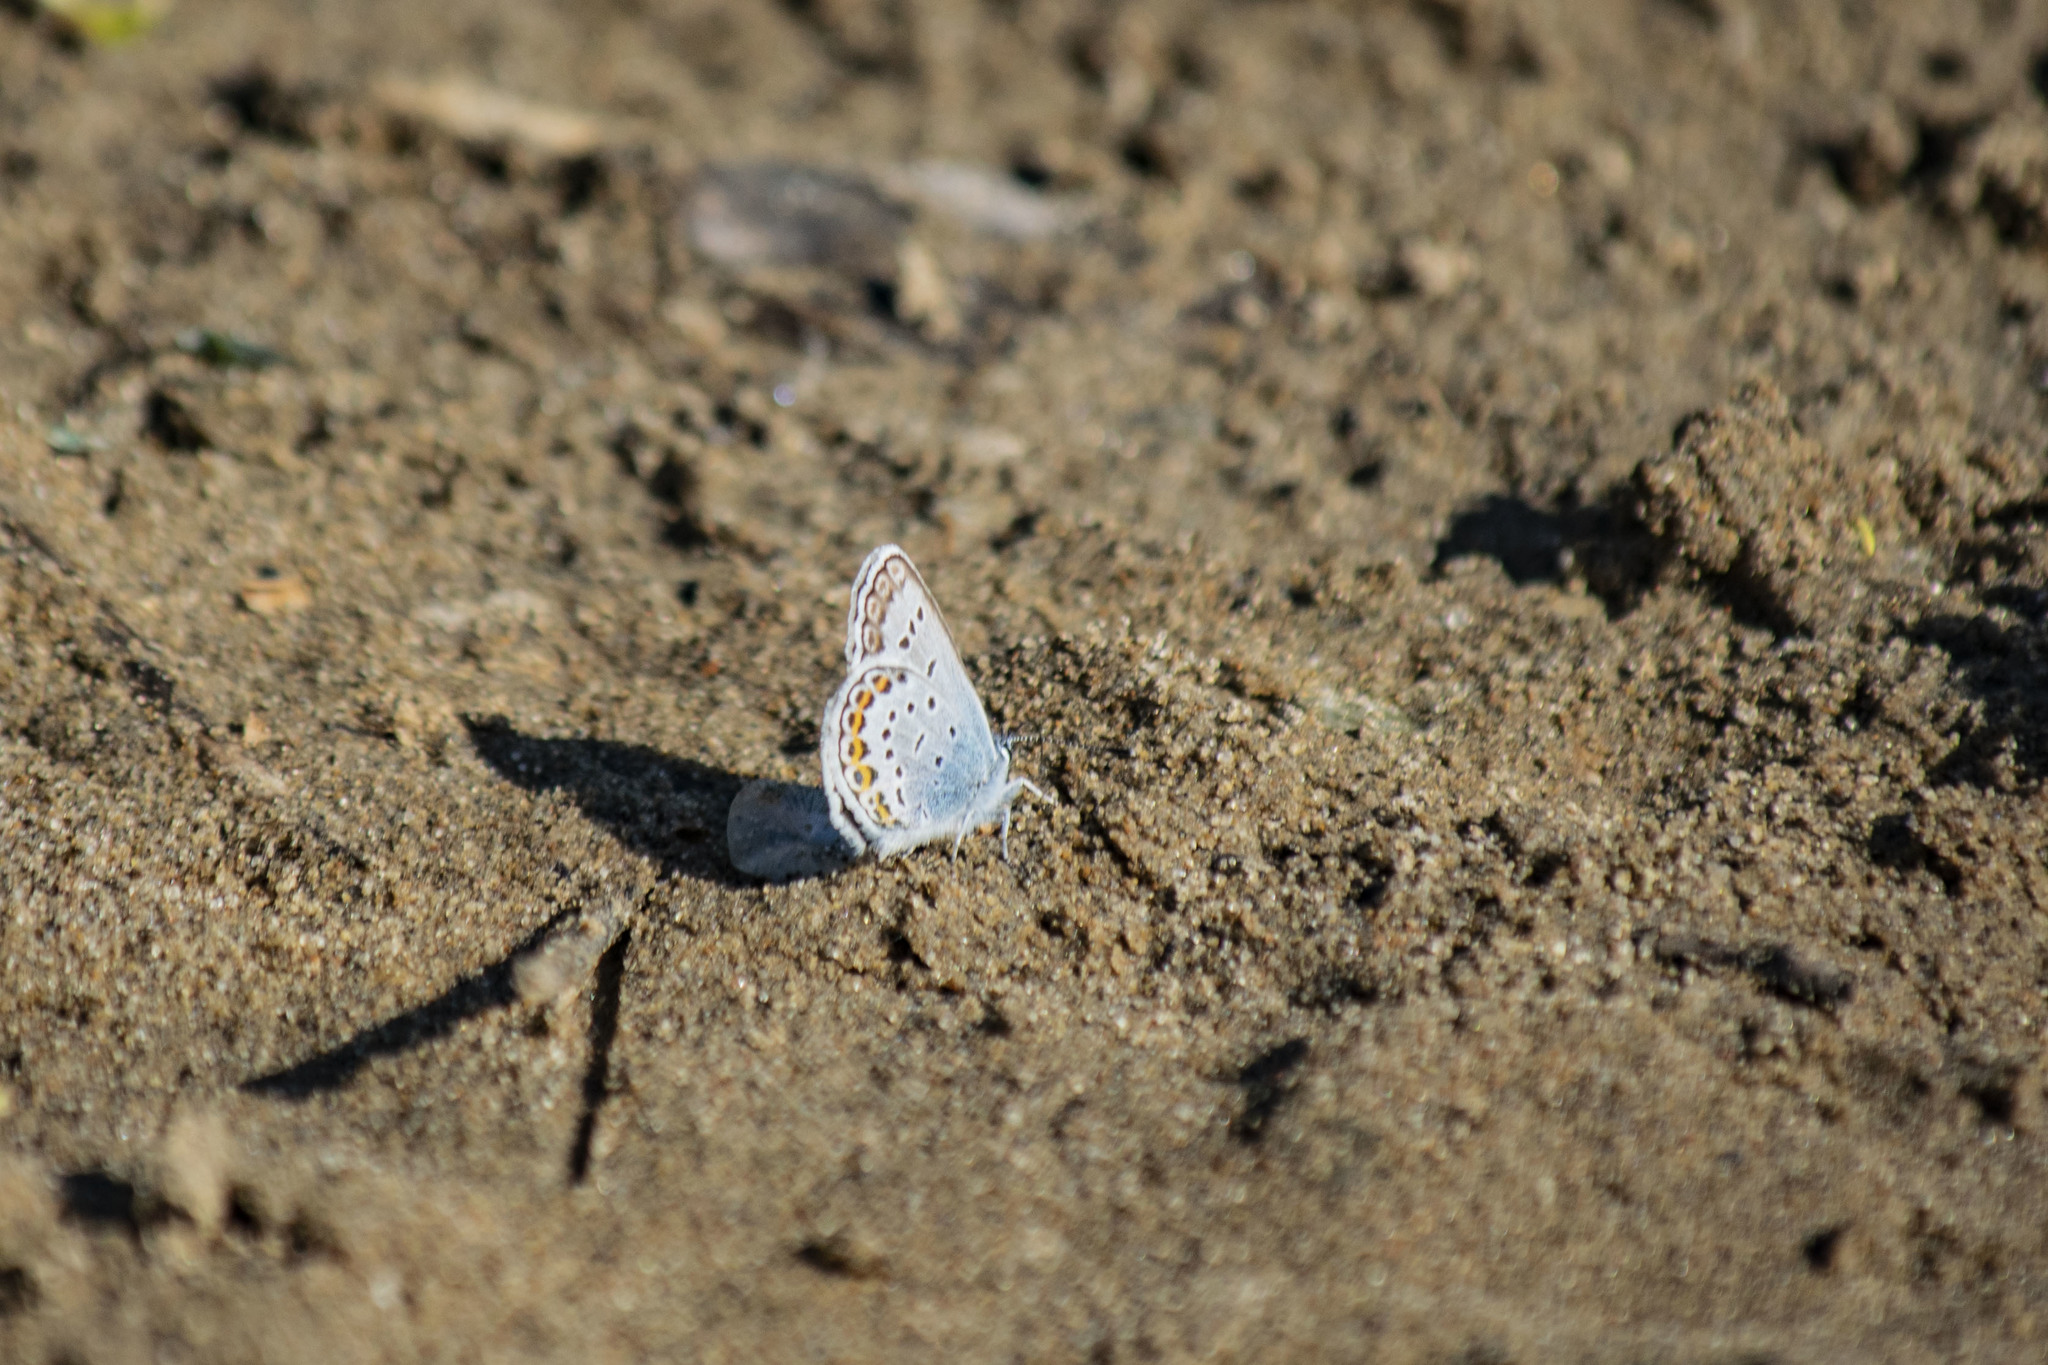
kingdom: Animalia
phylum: Arthropoda
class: Insecta
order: Lepidoptera
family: Lycaenidae
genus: Plebejus
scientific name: Plebejus argus
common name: Silver-studded blue
